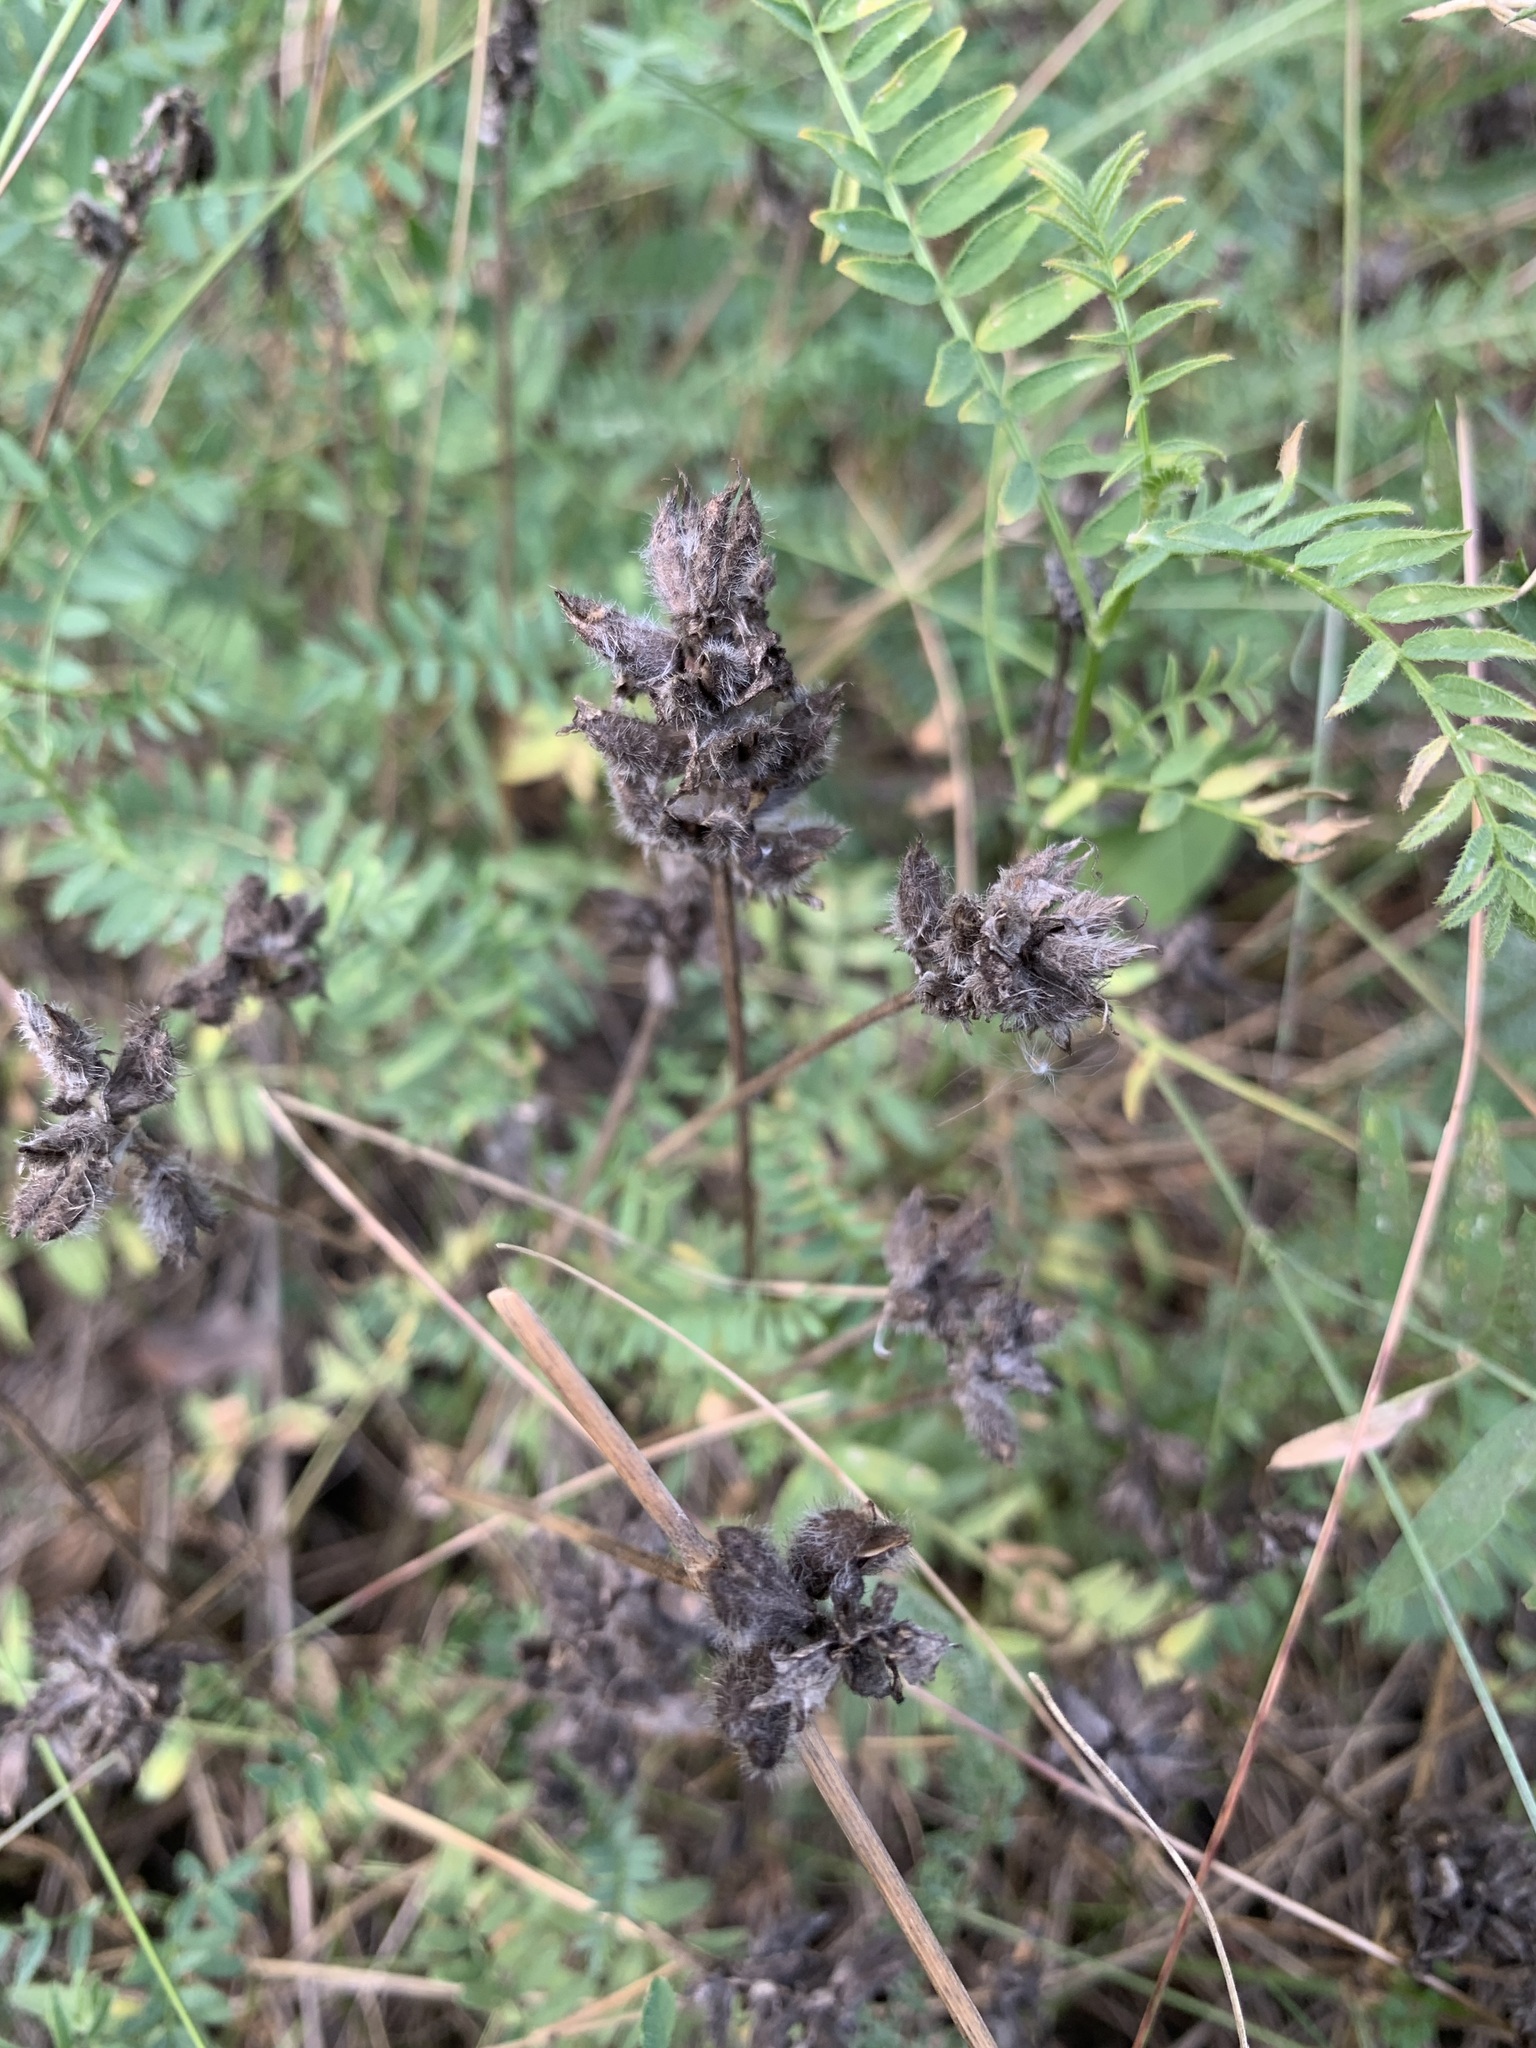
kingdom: Plantae
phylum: Tracheophyta
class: Magnoliopsida
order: Fabales
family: Fabaceae
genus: Astragalus
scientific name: Astragalus danicus
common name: Purple milk-vetch
